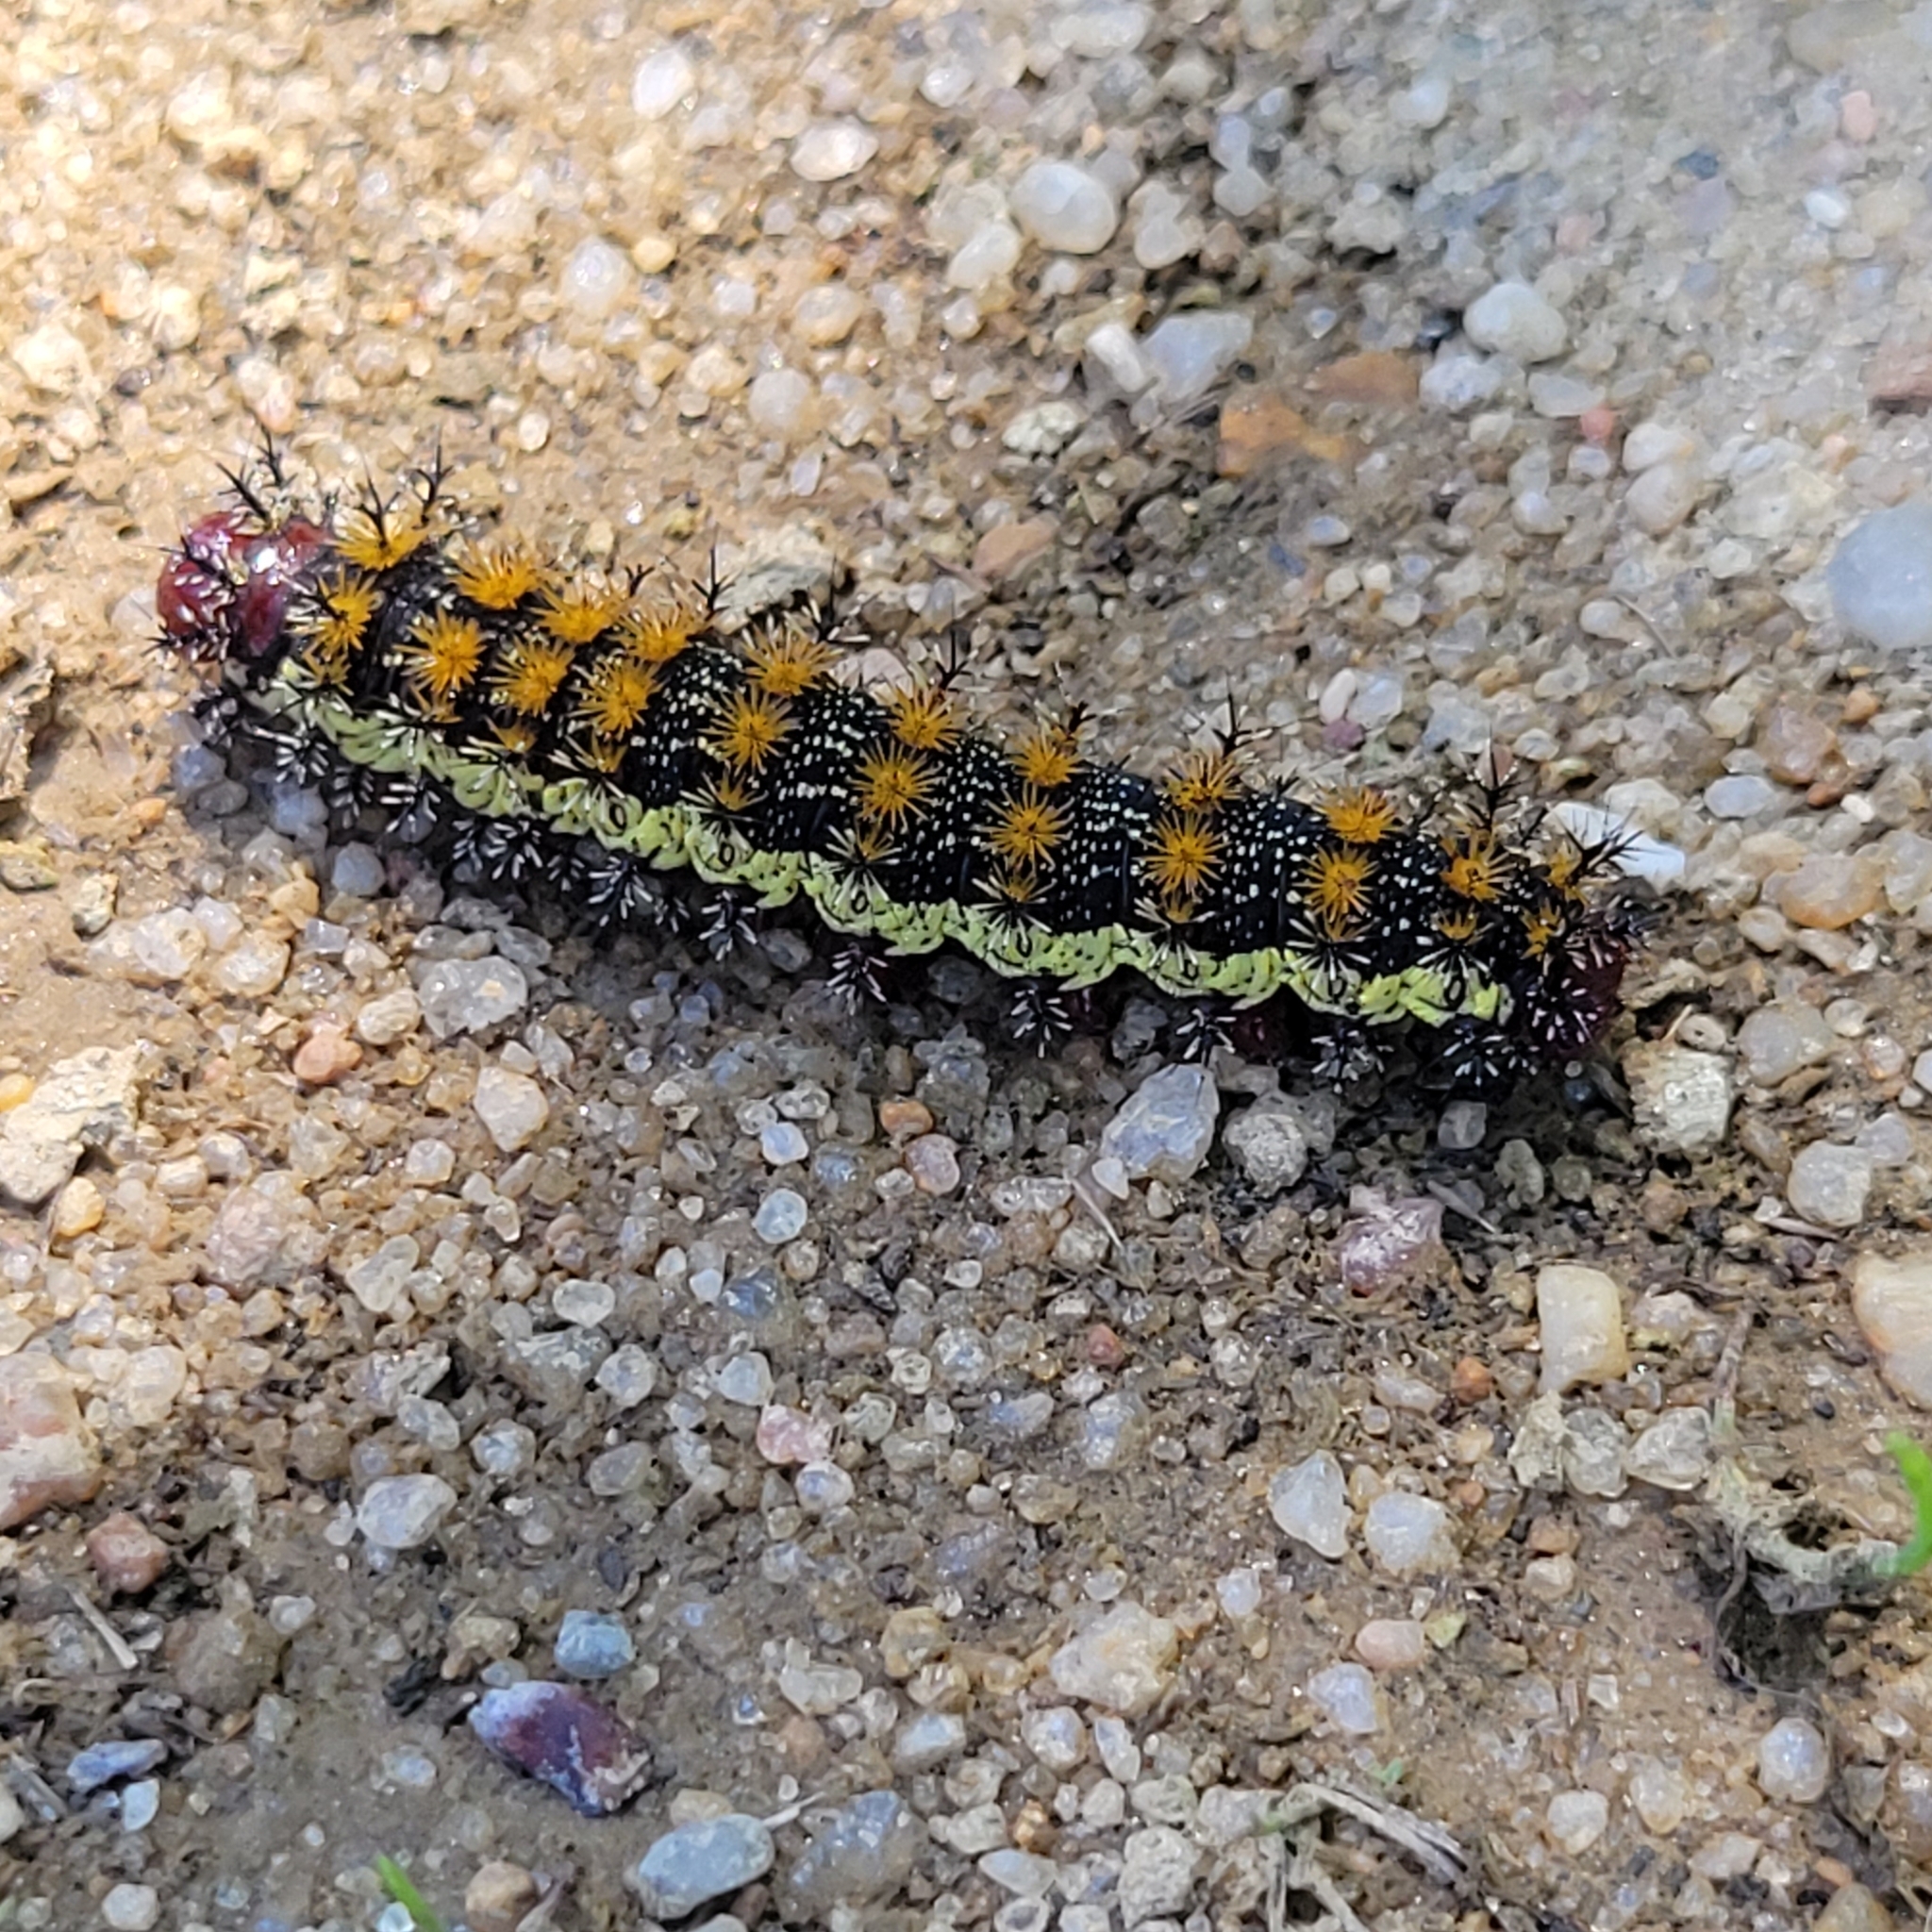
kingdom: Animalia
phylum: Arthropoda
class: Insecta
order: Lepidoptera
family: Saturniidae
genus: Hemileuca
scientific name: Hemileuca maia
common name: Eastern buckmoth
